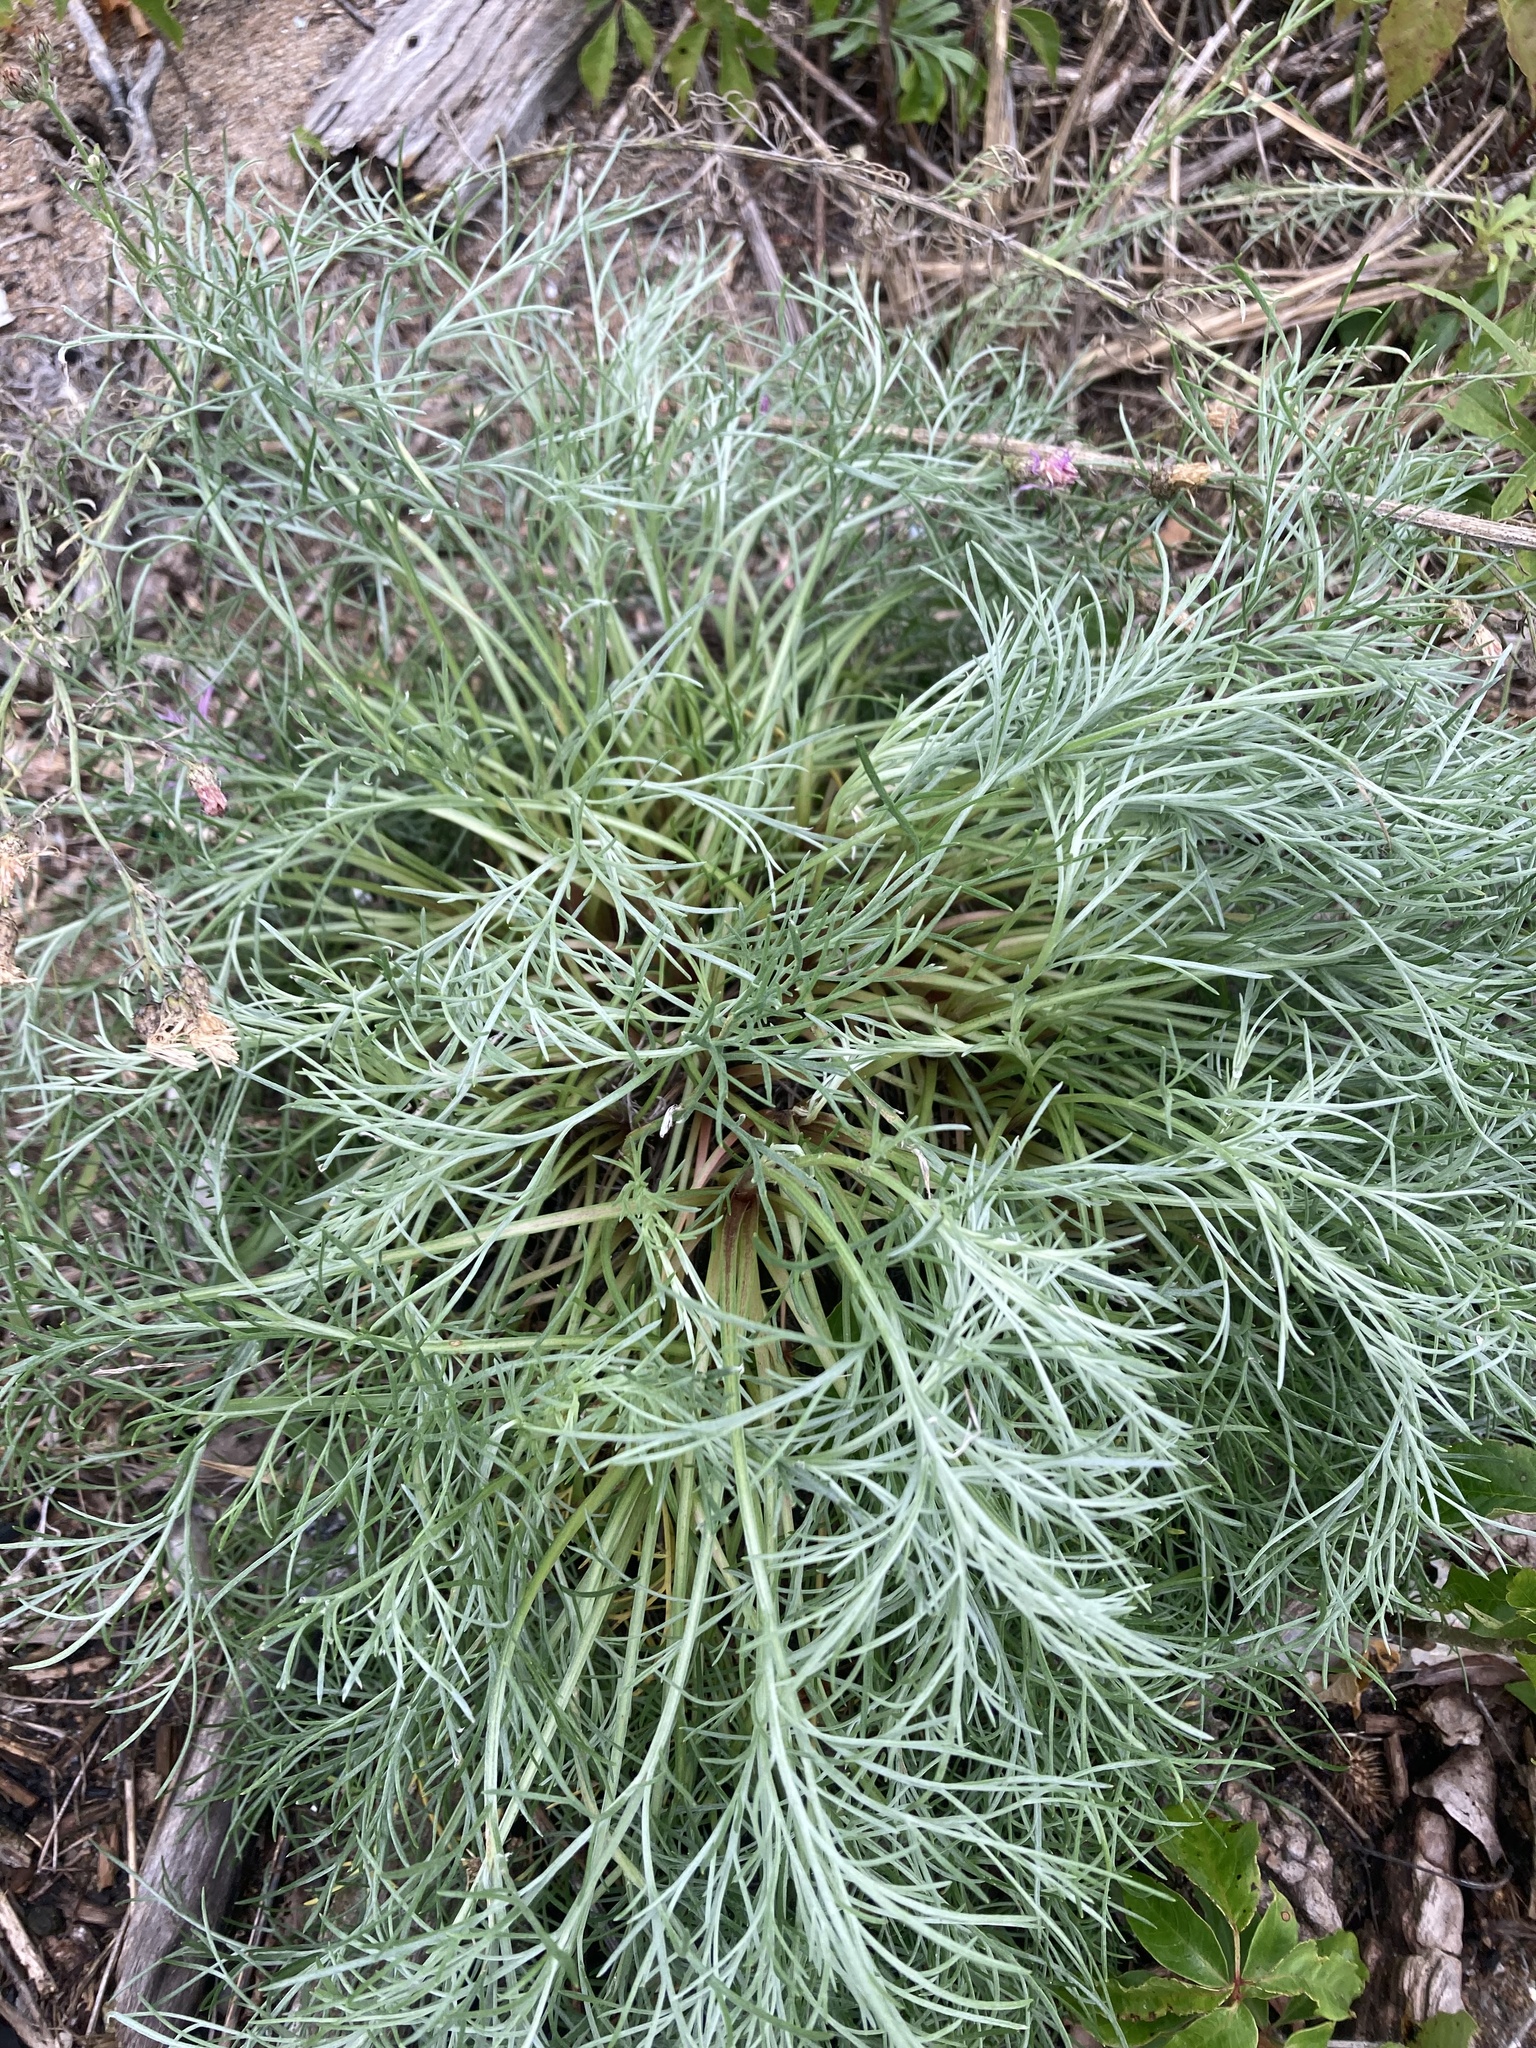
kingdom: Plantae
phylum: Tracheophyta
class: Magnoliopsida
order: Asterales
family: Asteraceae
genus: Artemisia
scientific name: Artemisia campestris
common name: Field wormwood
